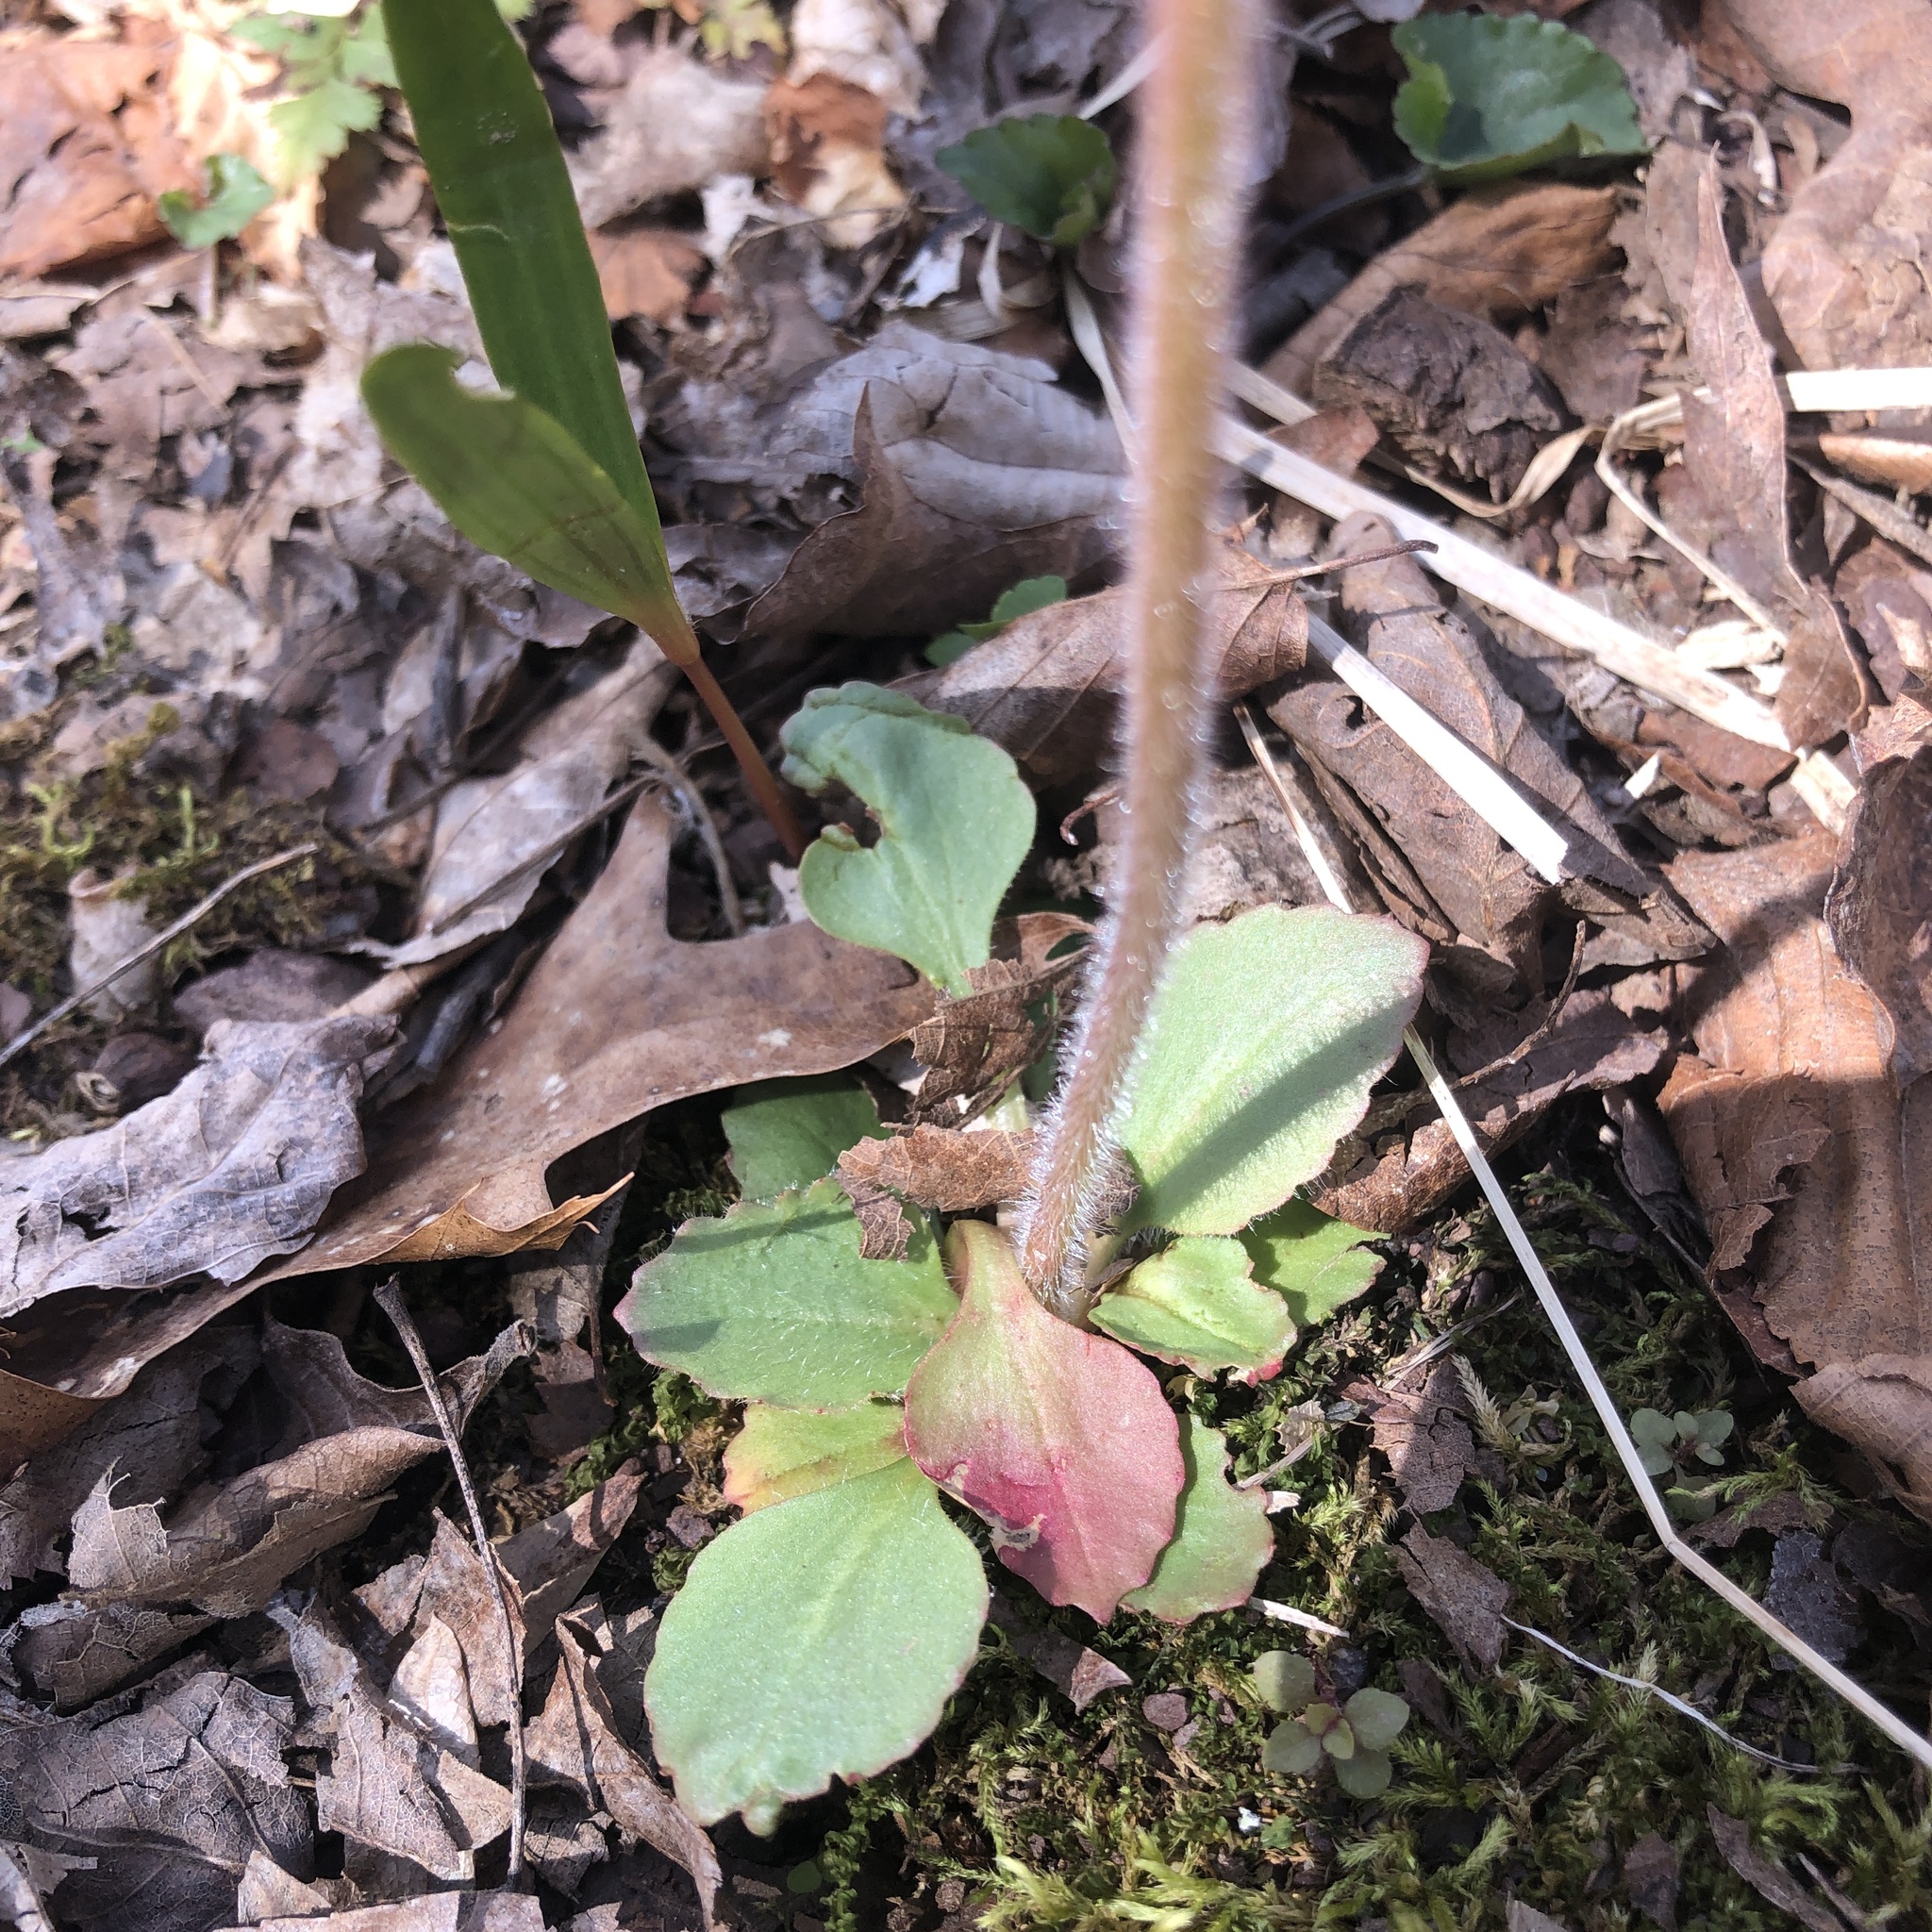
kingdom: Plantae
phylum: Tracheophyta
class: Magnoliopsida
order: Saxifragales
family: Saxifragaceae
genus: Micranthes
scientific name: Micranthes virginiensis
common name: Early saxifrage
